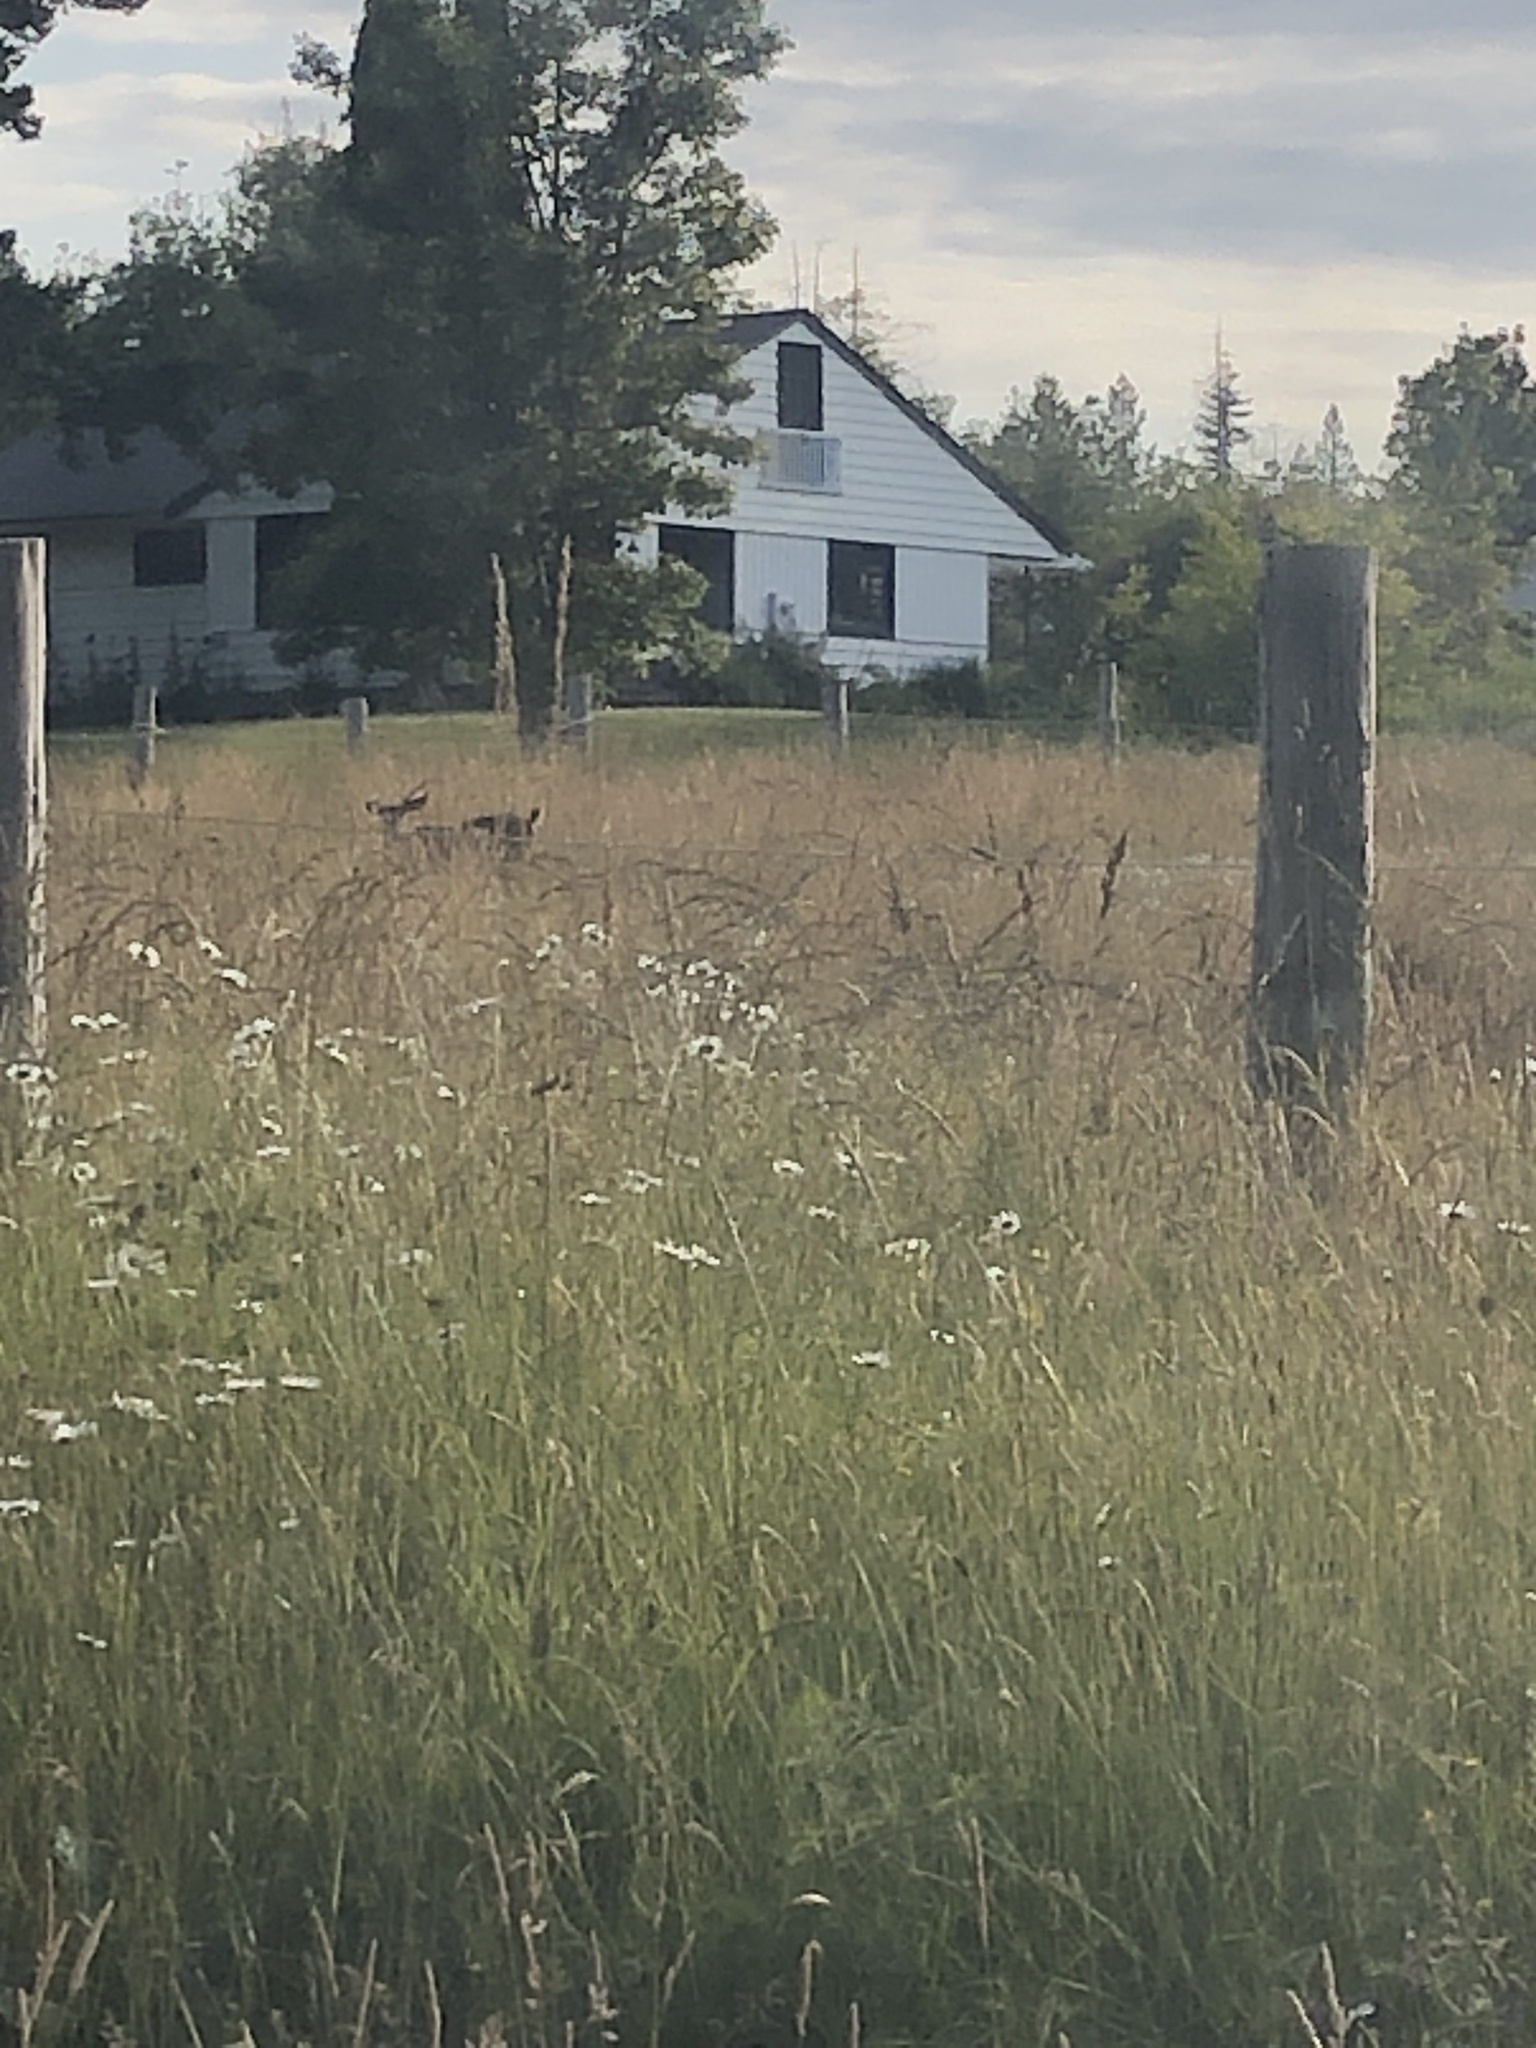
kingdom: Animalia
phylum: Chordata
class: Mammalia
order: Artiodactyla
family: Cervidae
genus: Odocoileus
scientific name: Odocoileus hemionus
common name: Mule deer
